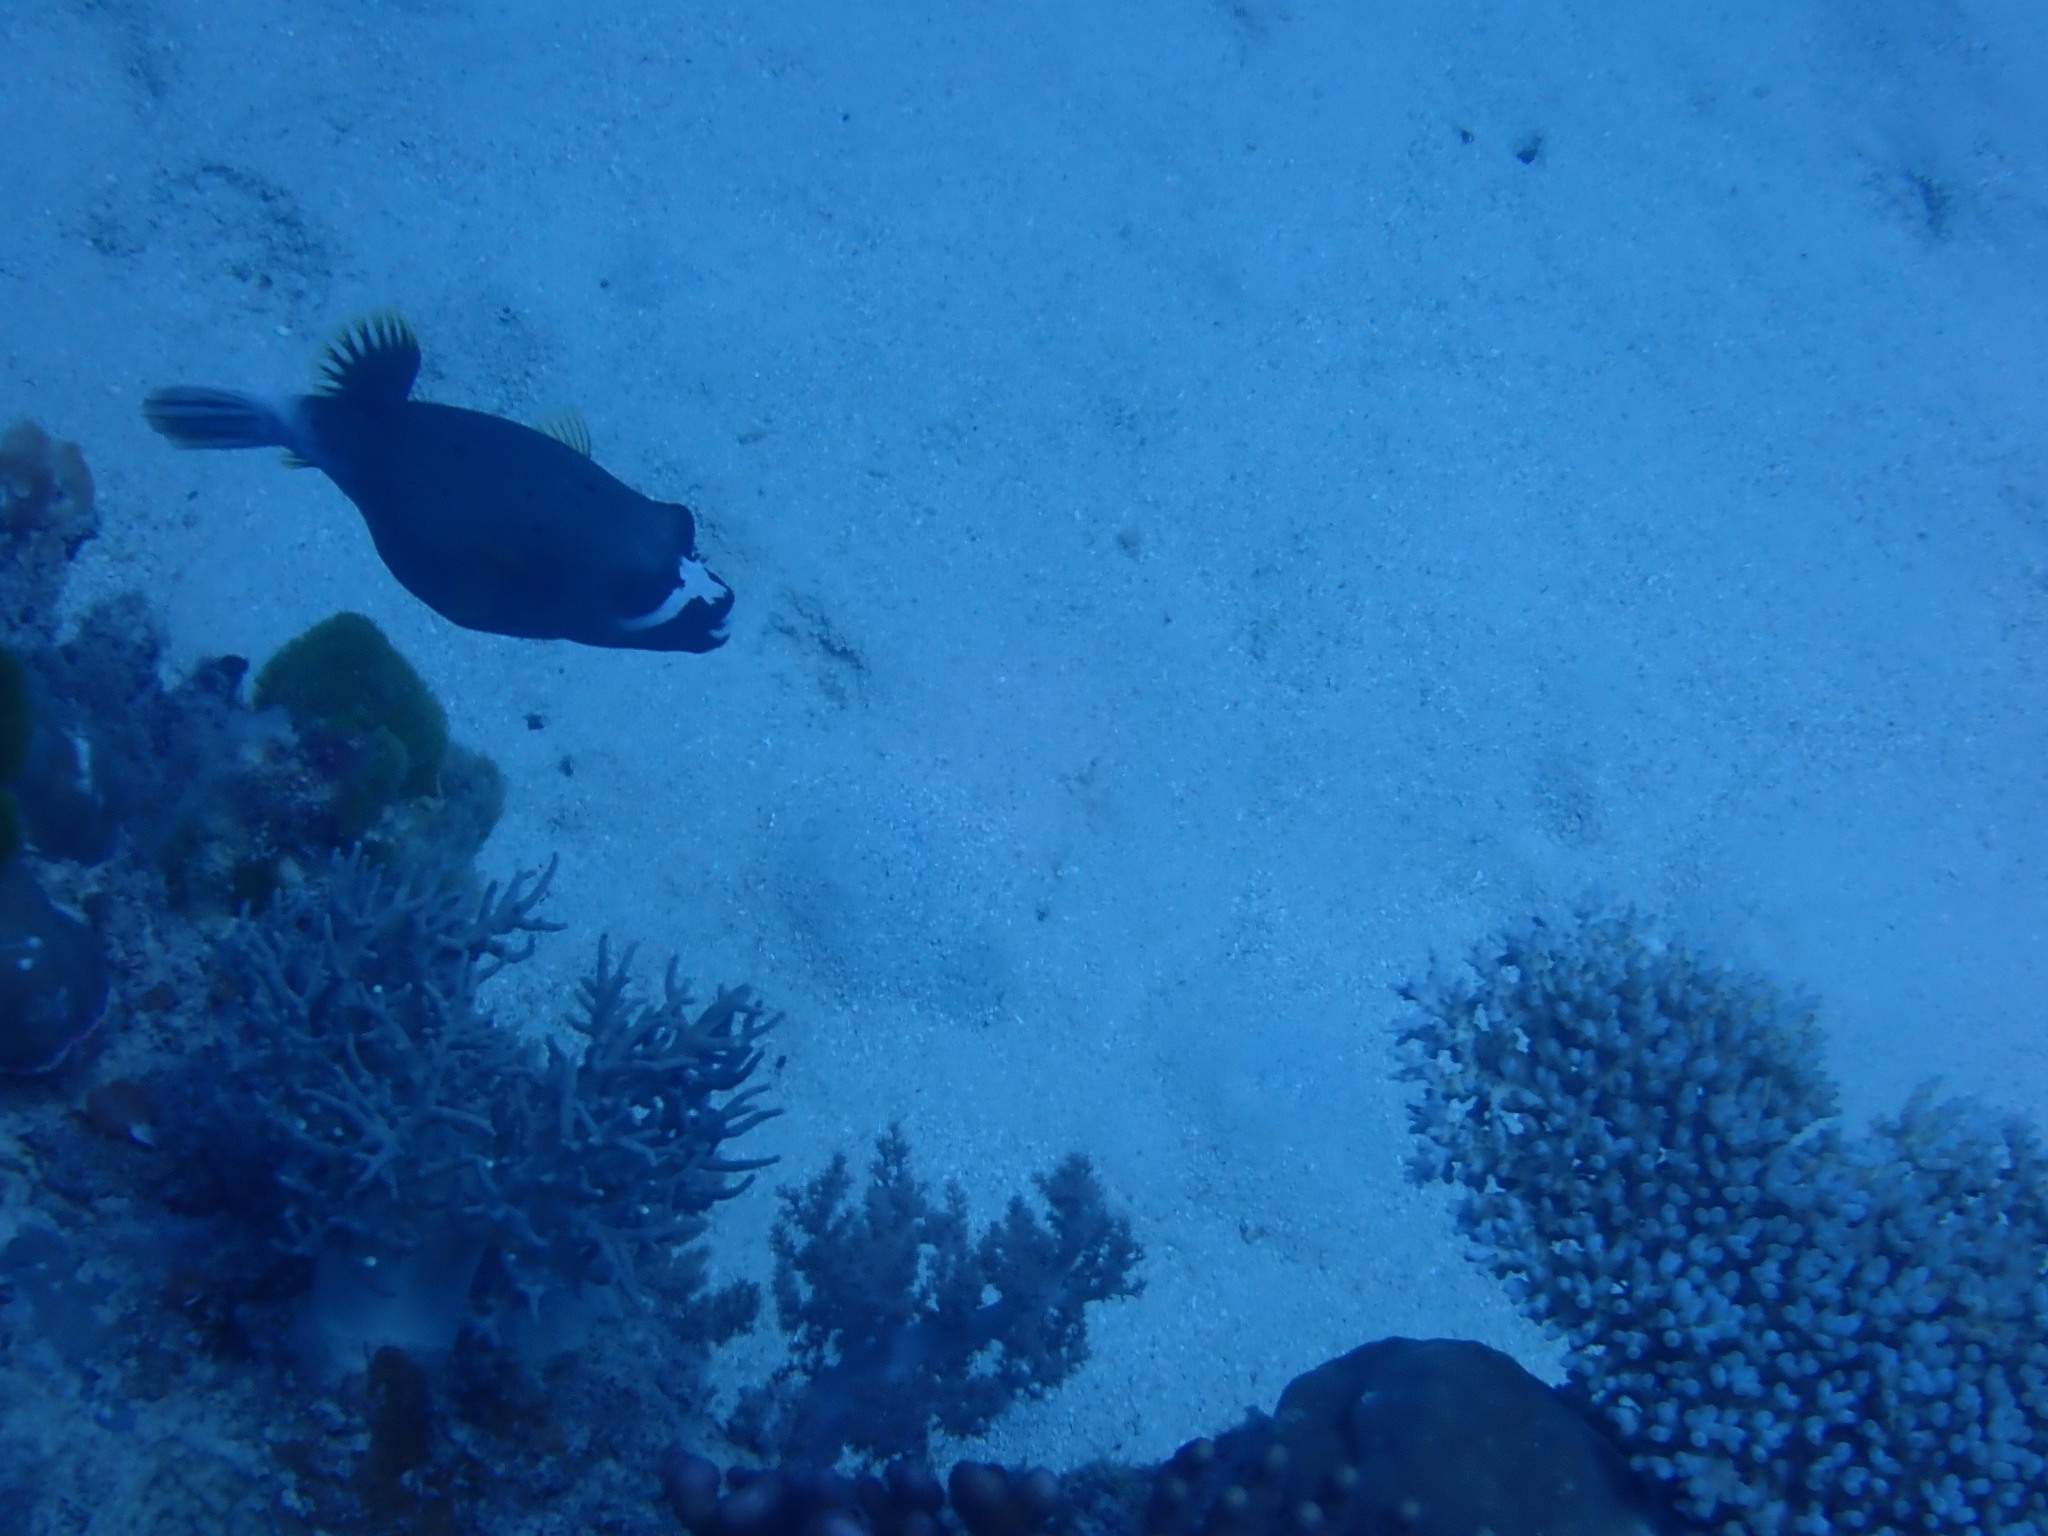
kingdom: Animalia
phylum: Chordata
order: Tetraodontiformes
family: Tetraodontidae
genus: Arothron
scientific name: Arothron nigropunctatus
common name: Black spotted blow fish
